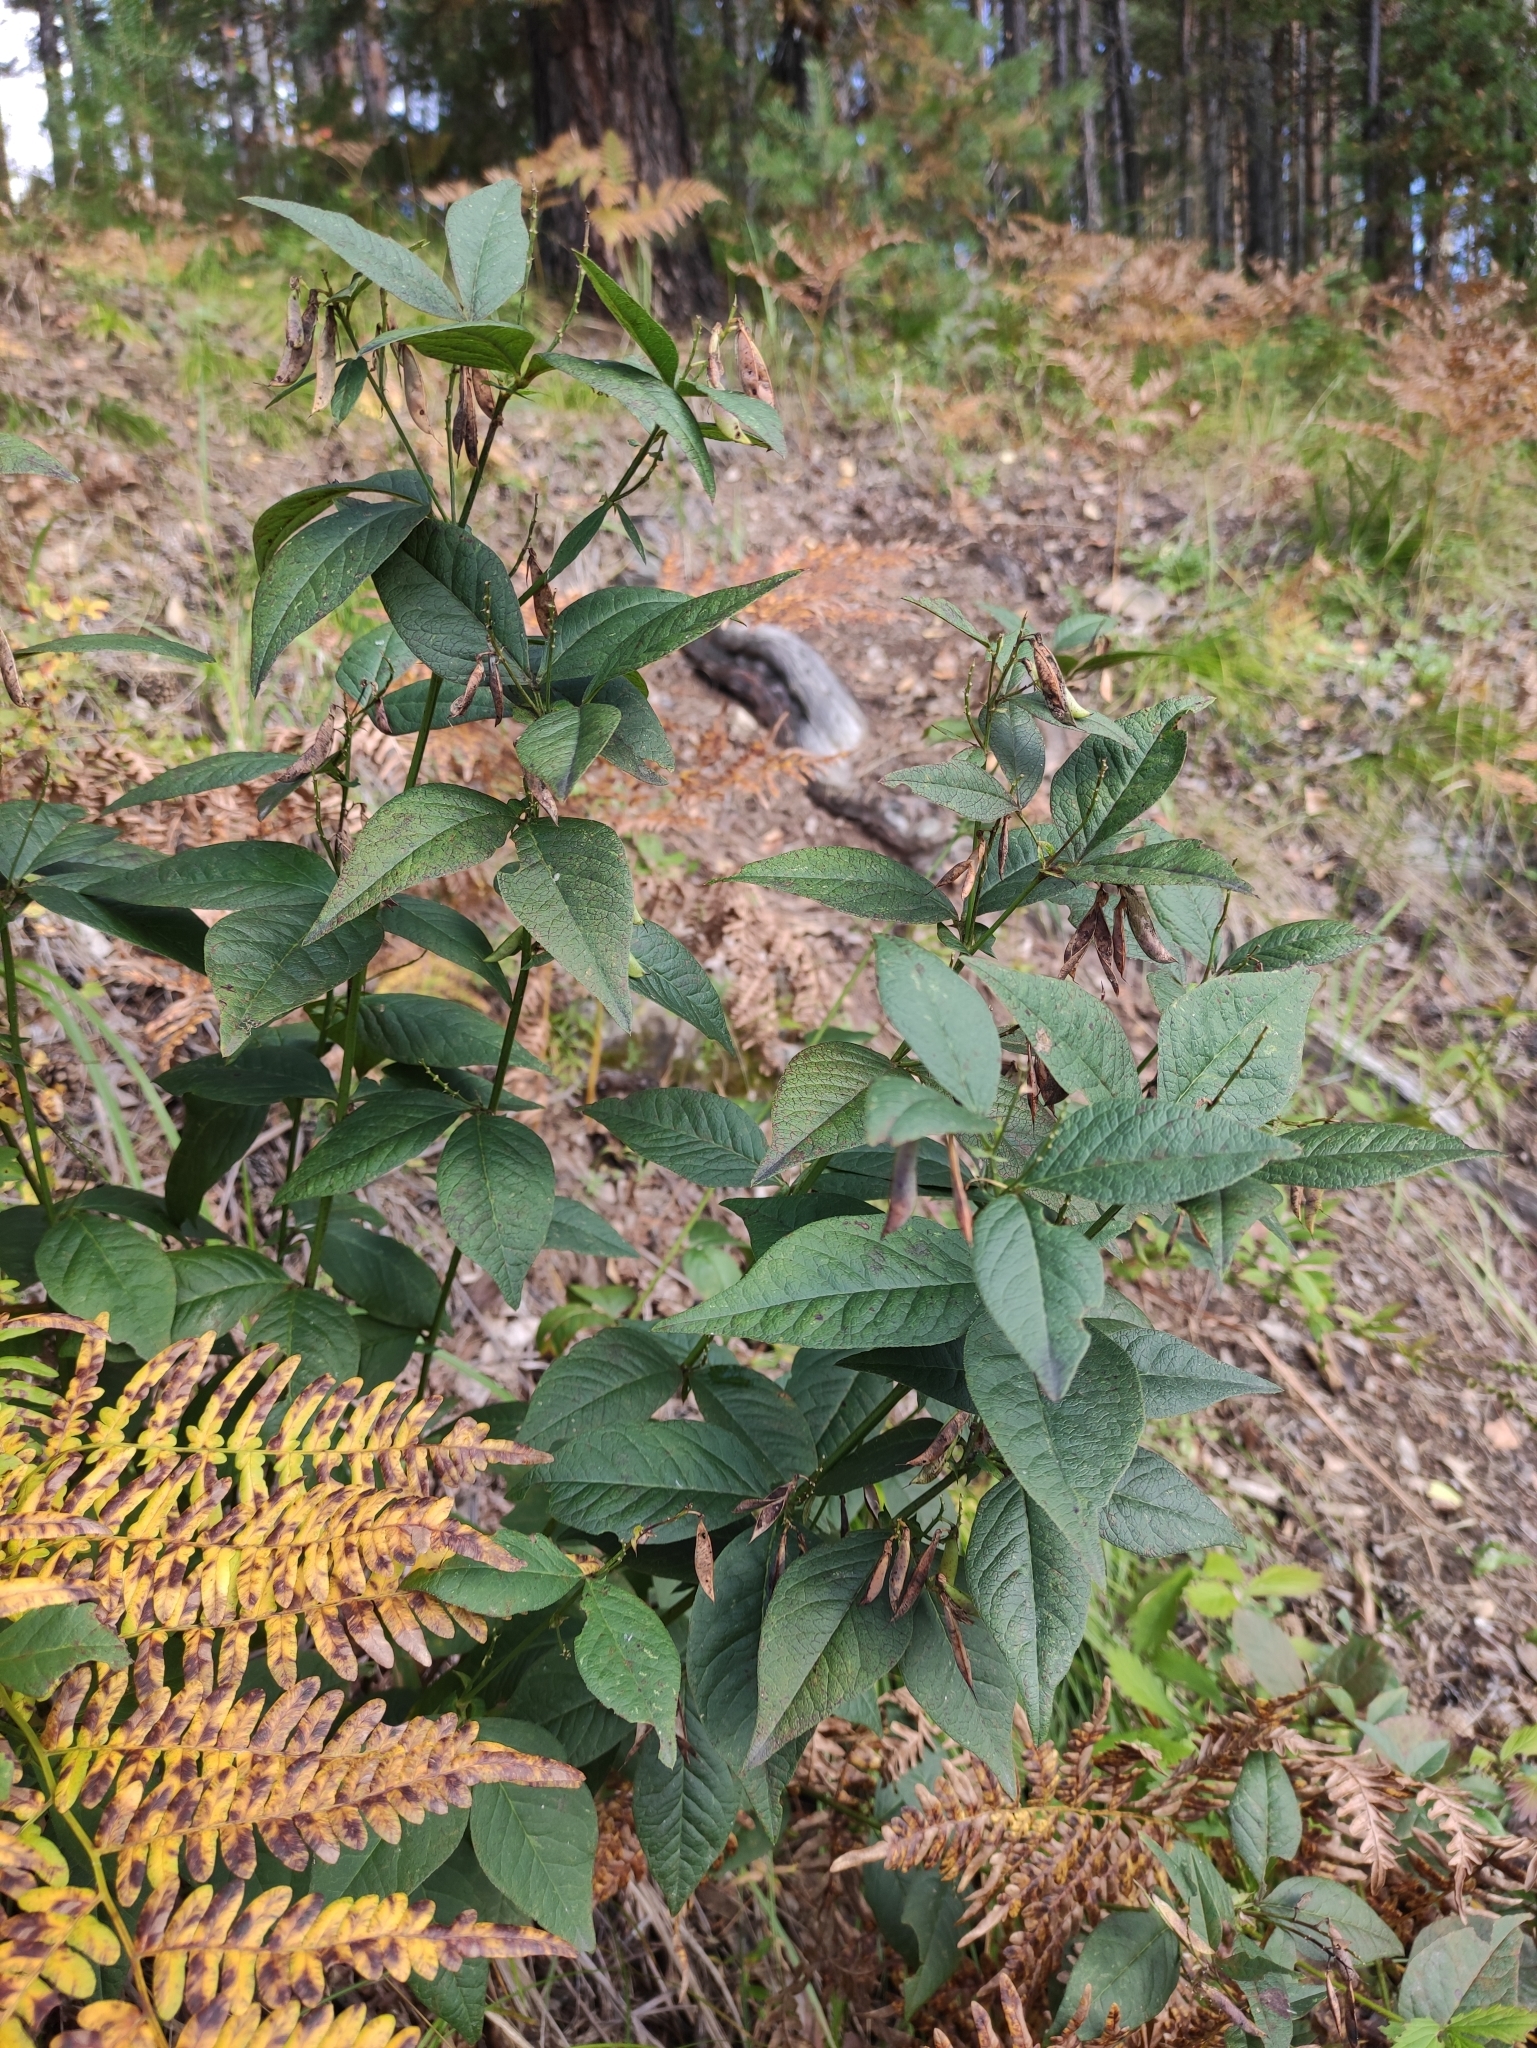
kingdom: Plantae
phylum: Tracheophyta
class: Magnoliopsida
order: Fabales
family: Fabaceae
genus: Vicia
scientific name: Vicia unijuga
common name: Two-leaf vetch
